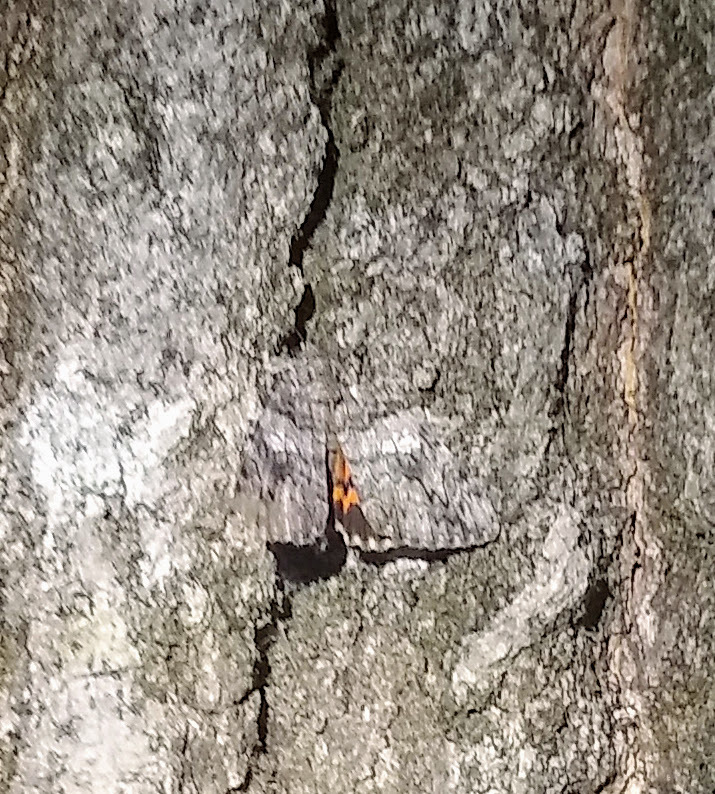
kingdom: Animalia
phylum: Arthropoda
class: Insecta
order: Lepidoptera
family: Erebidae
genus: Catocala
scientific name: Catocala ilia
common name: Ilia underwing
